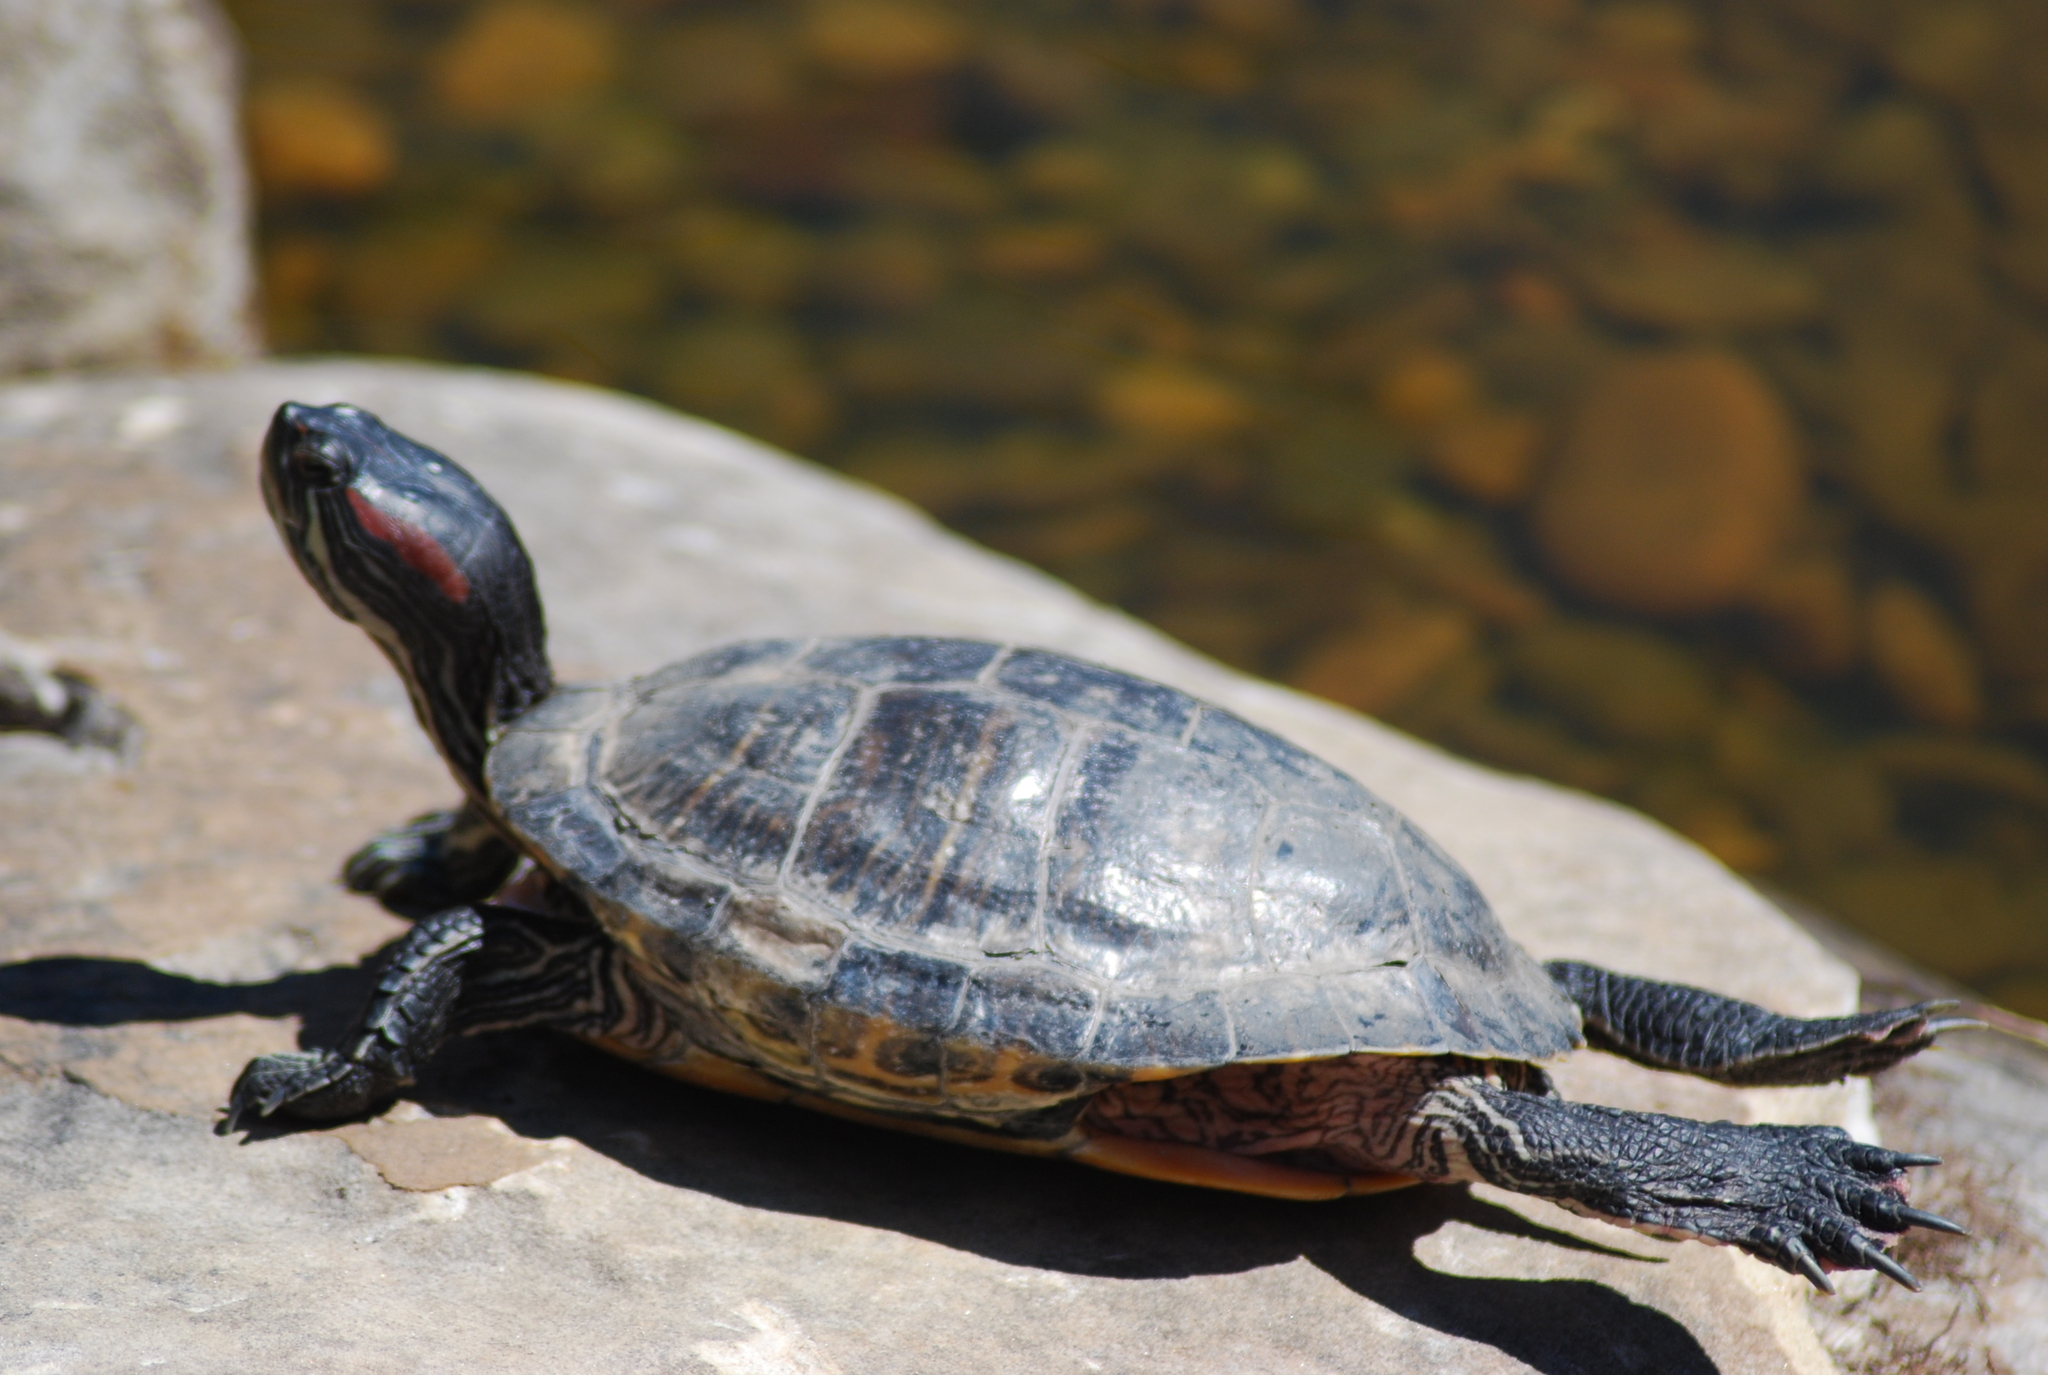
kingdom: Animalia
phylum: Chordata
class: Testudines
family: Emydidae
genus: Trachemys
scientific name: Trachemys scripta
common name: Slider
